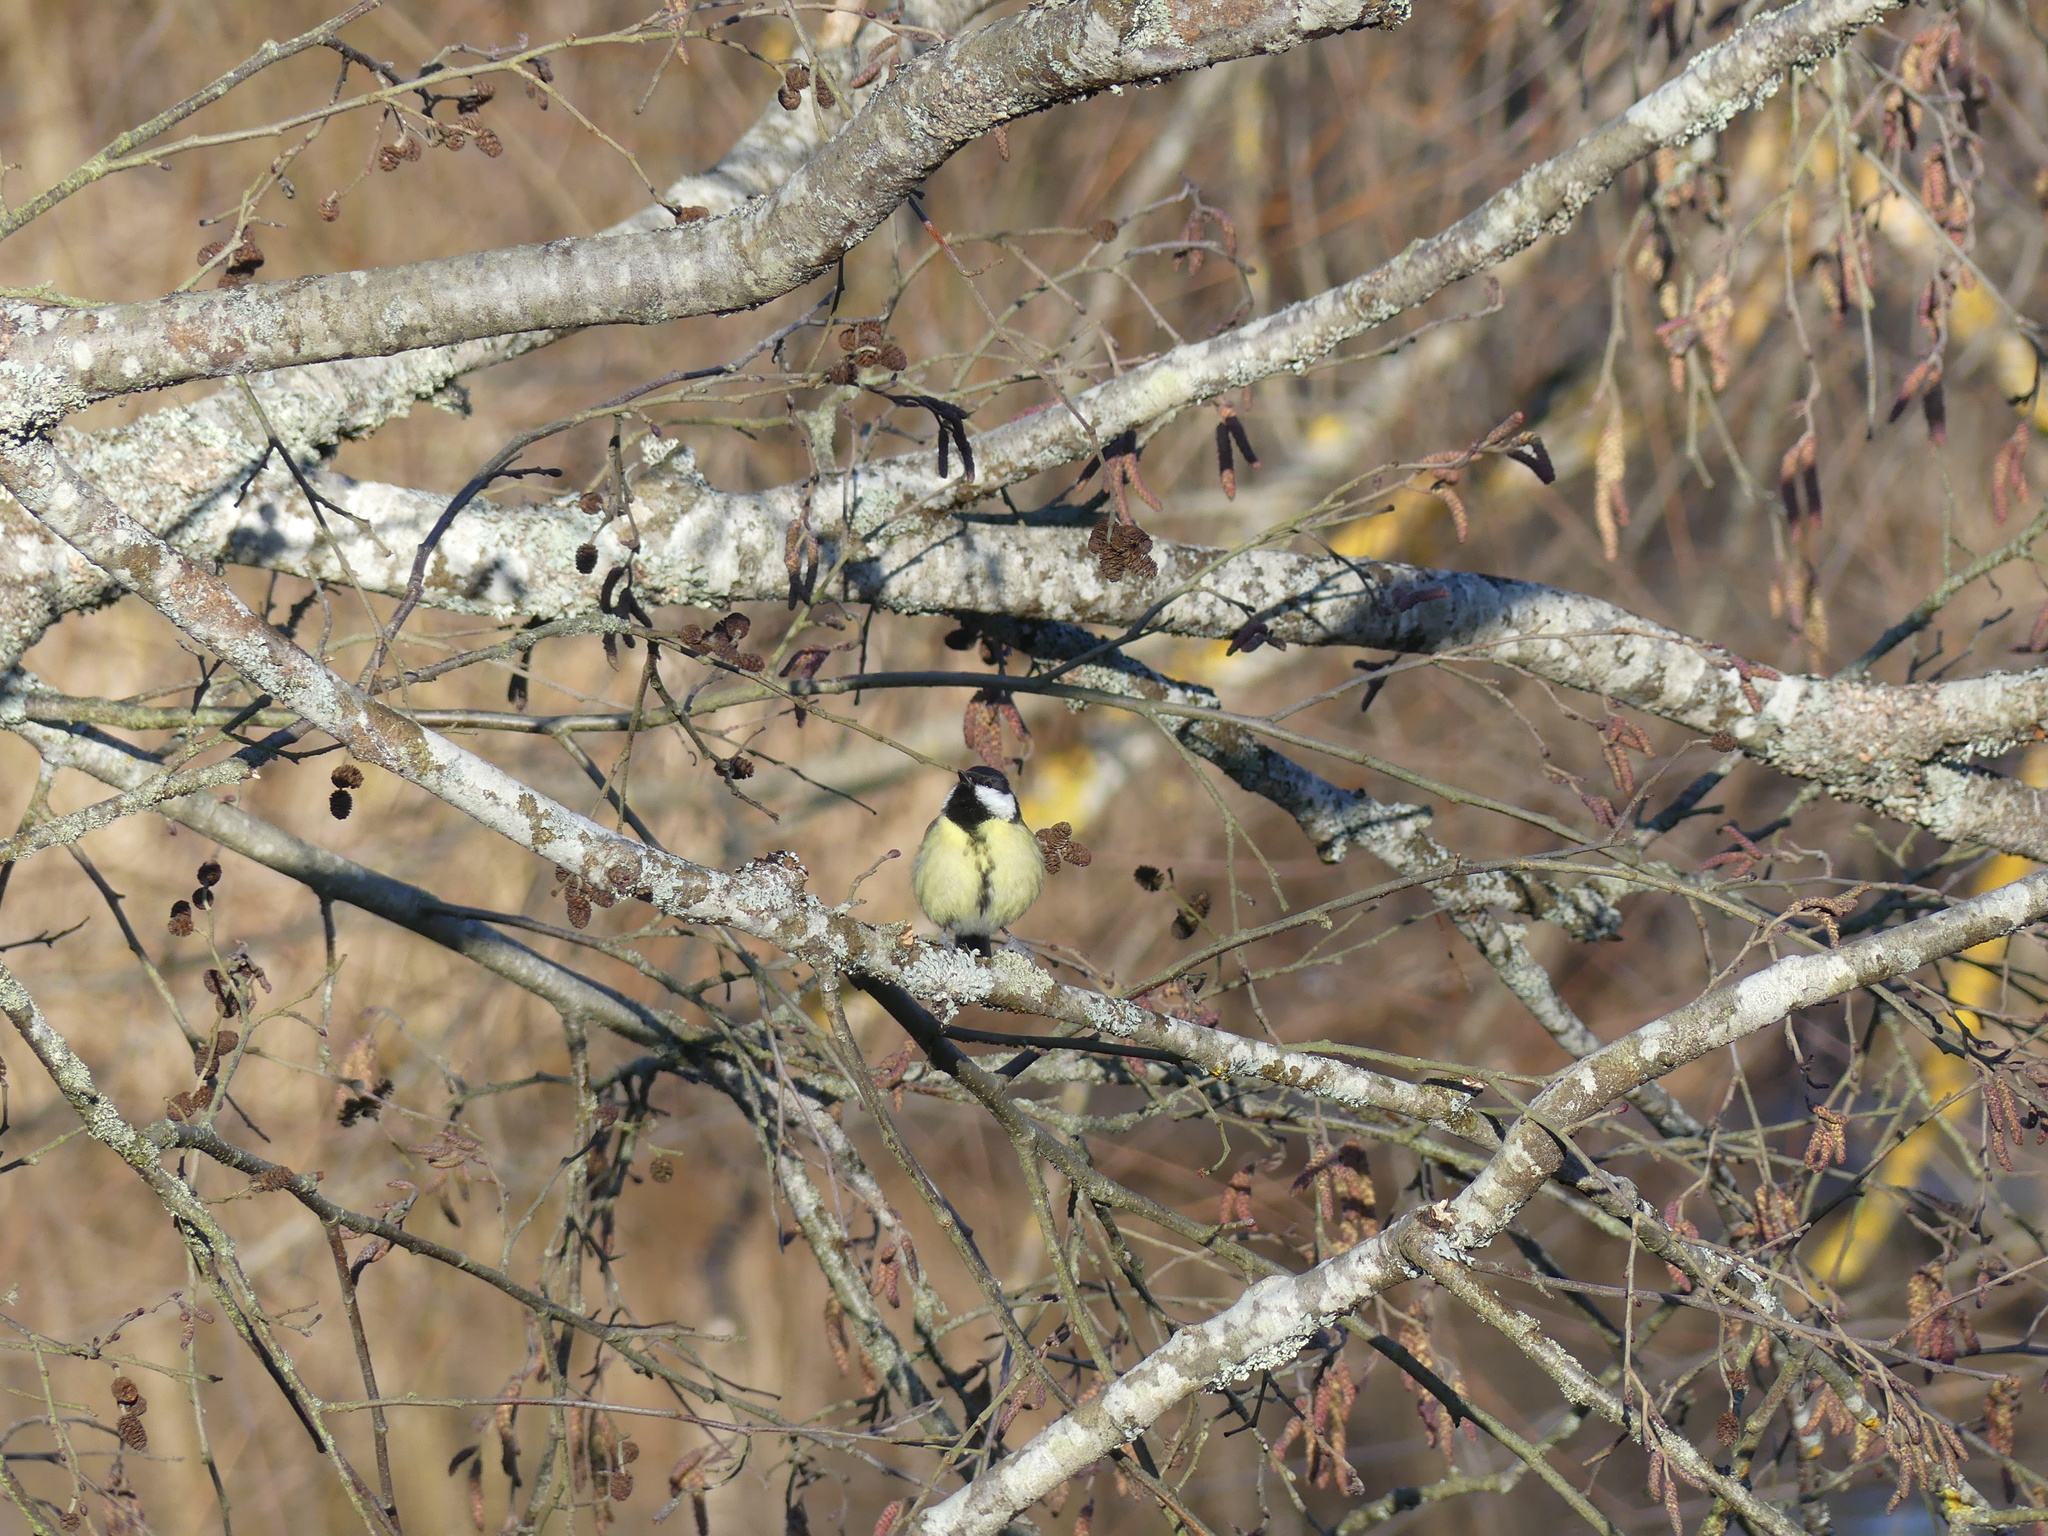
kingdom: Animalia
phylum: Chordata
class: Aves
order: Passeriformes
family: Paridae
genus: Parus
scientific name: Parus major
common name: Great tit
